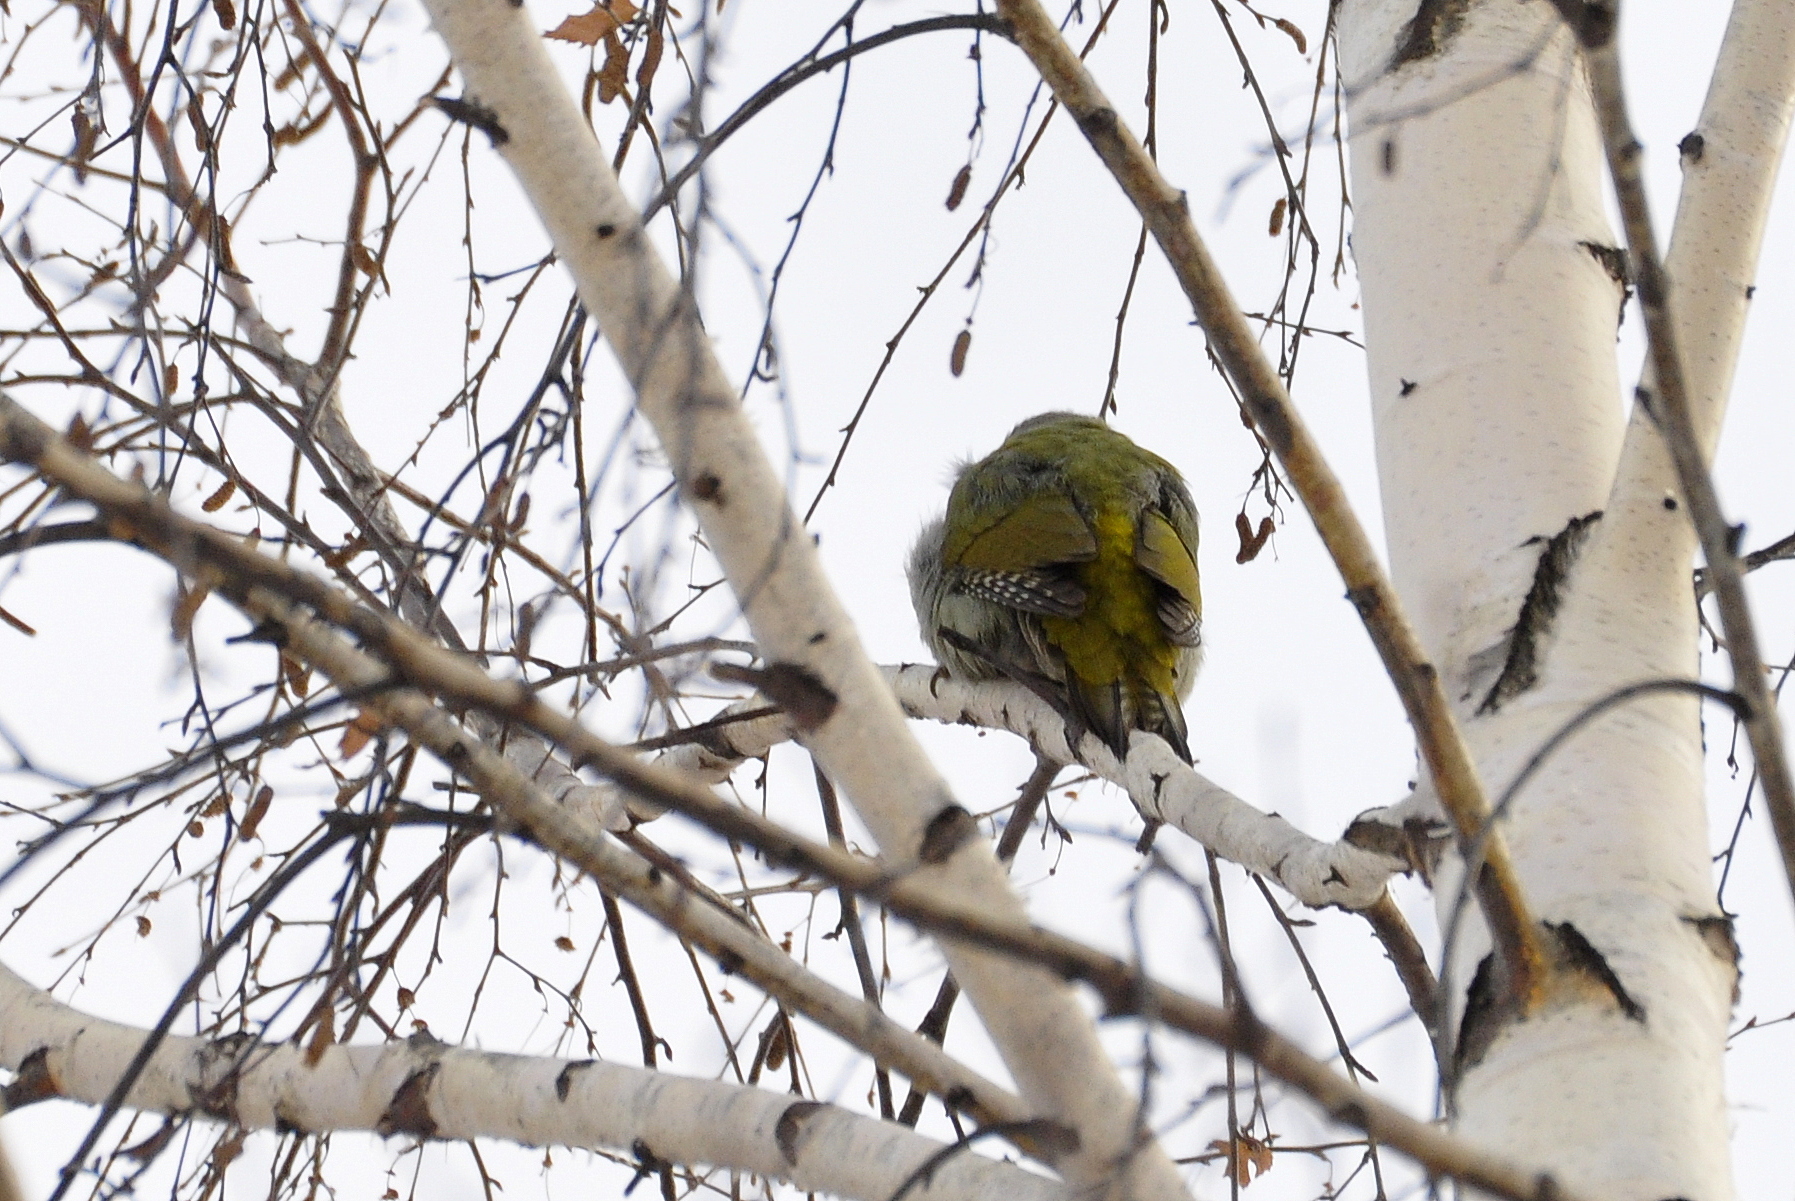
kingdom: Animalia
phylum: Chordata
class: Aves
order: Piciformes
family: Picidae
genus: Picus
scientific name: Picus canus
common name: Grey-headed woodpecker
